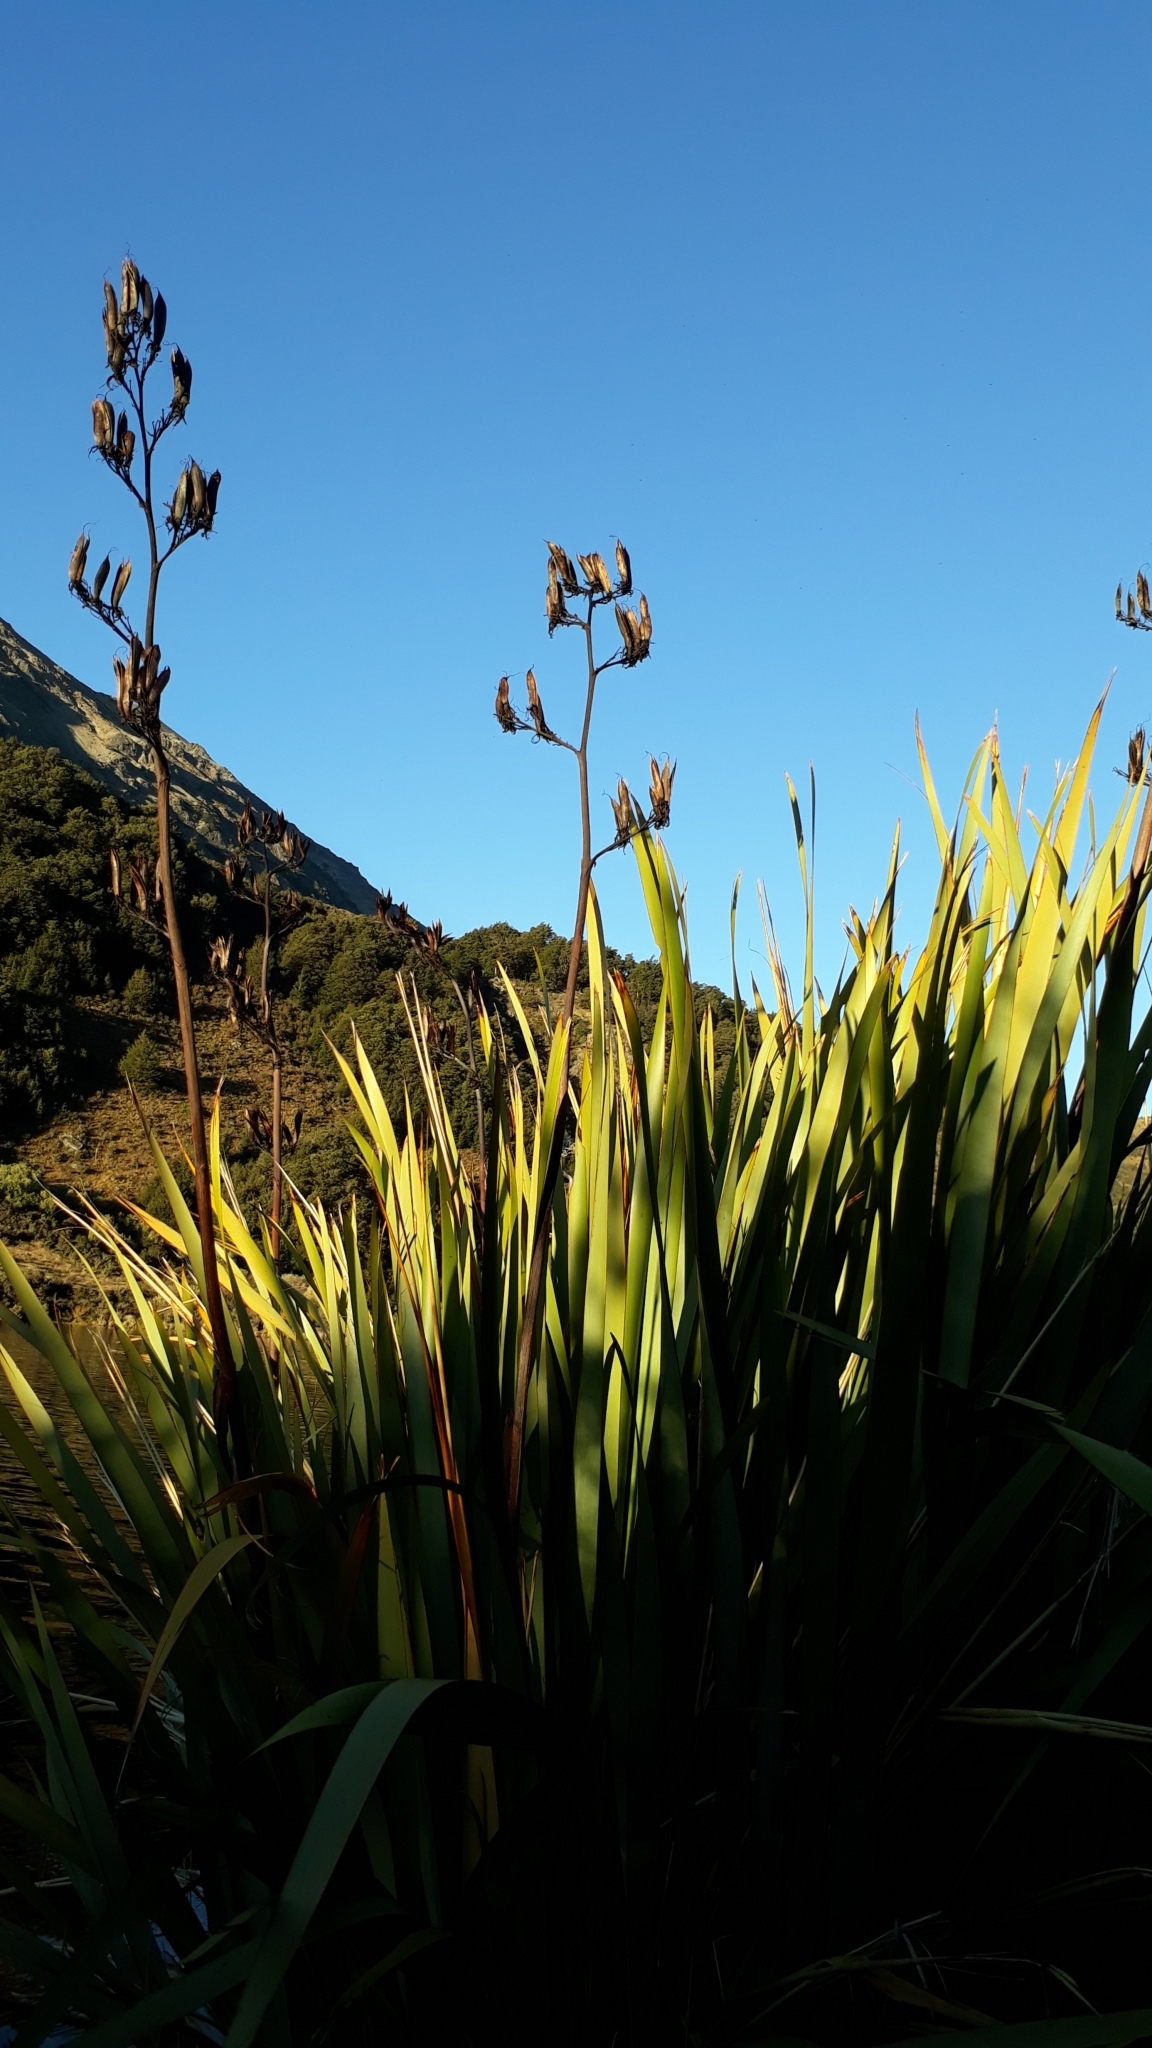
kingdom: Plantae
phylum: Tracheophyta
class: Liliopsida
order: Asparagales
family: Asphodelaceae
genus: Phormium
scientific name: Phormium tenax
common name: New zealand flax
